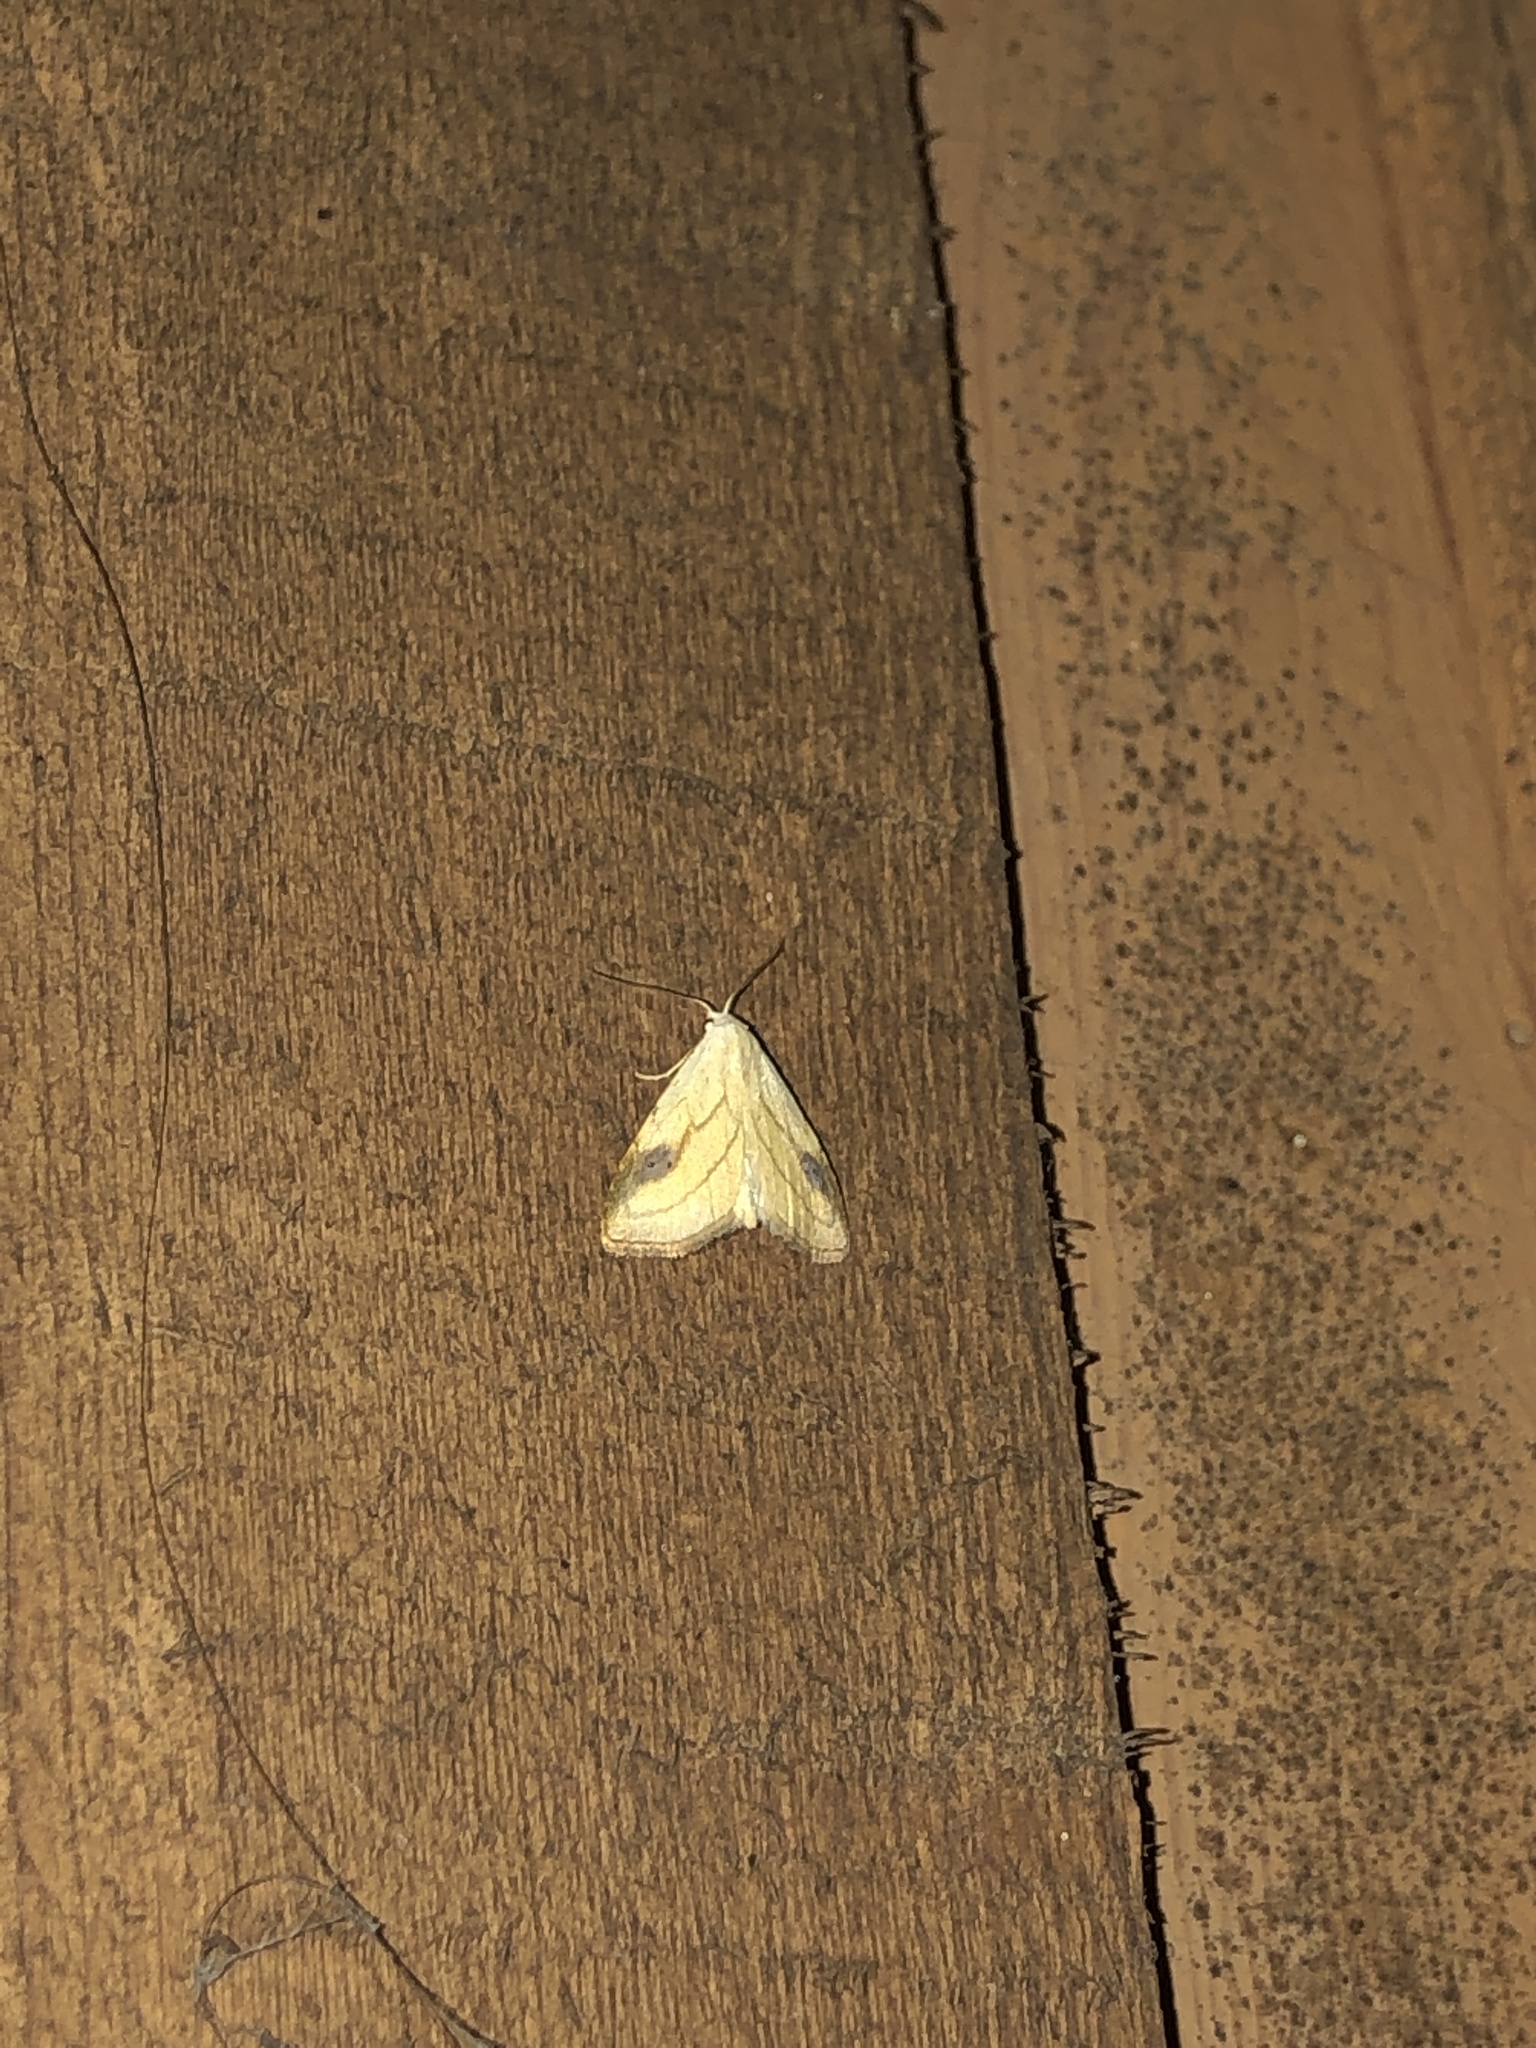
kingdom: Animalia
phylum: Arthropoda
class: Insecta
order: Lepidoptera
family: Erebidae
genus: Rivula
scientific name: Rivula propinqualis
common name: Spotted grass moth
